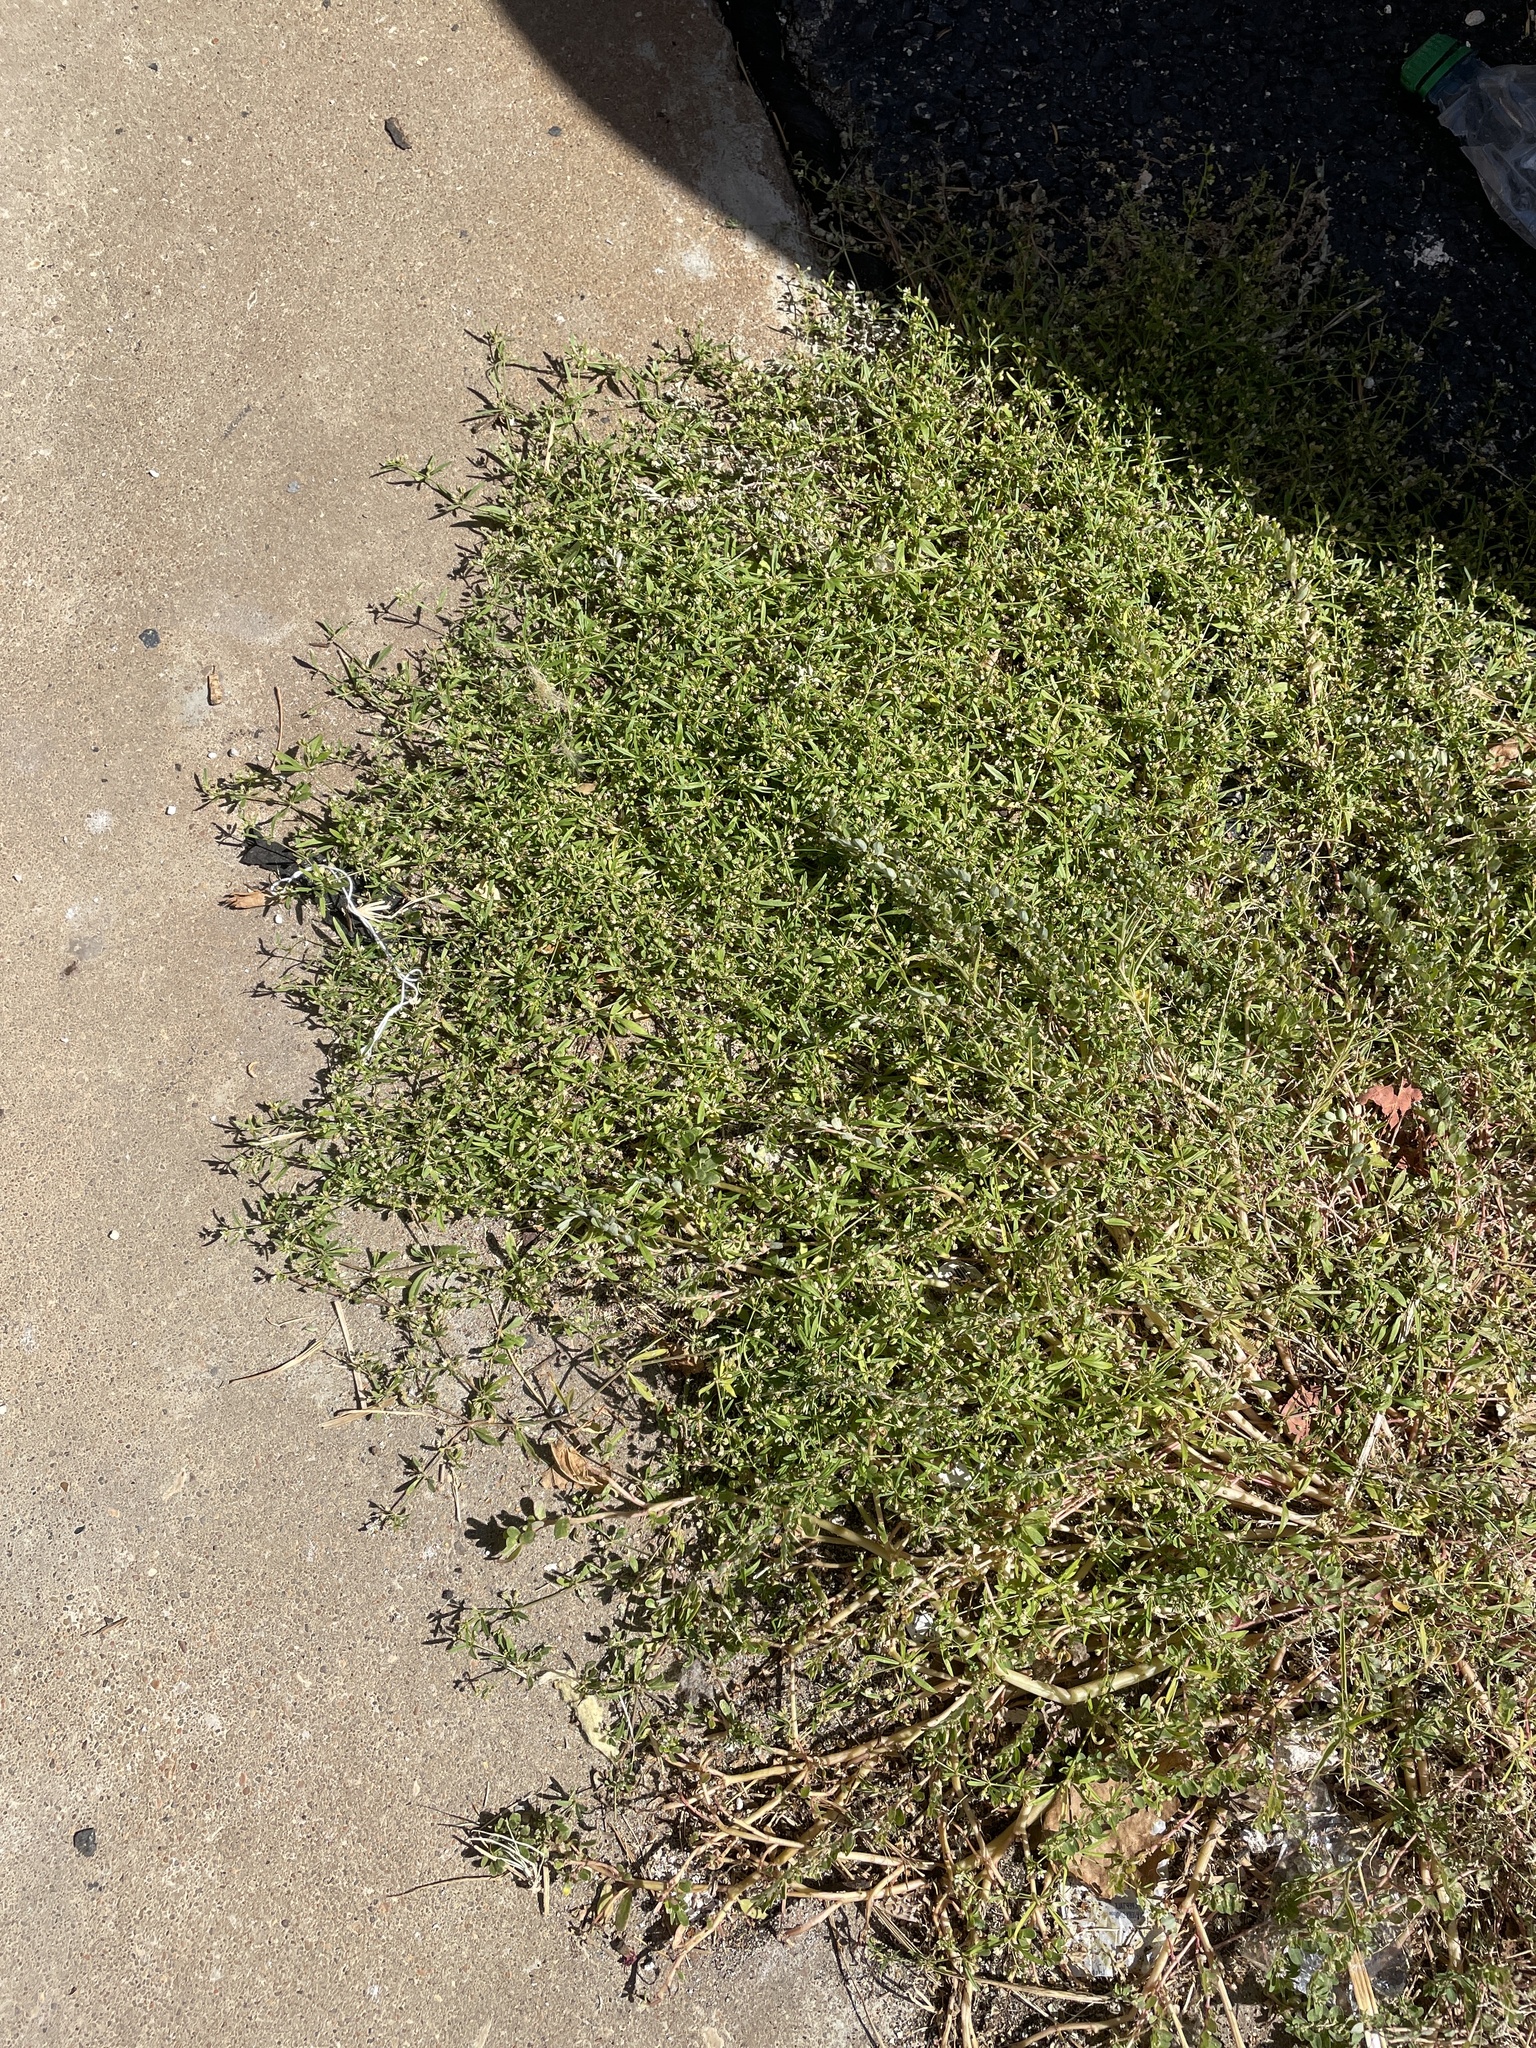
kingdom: Plantae
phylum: Tracheophyta
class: Magnoliopsida
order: Caryophyllales
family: Molluginaceae
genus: Mollugo
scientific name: Mollugo verticillata
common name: Green carpetweed
